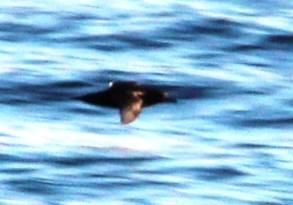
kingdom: Animalia
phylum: Chordata
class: Aves
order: Procellariiformes
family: Procellariidae
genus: Puffinus
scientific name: Puffinus griseus
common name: Sooty shearwater
